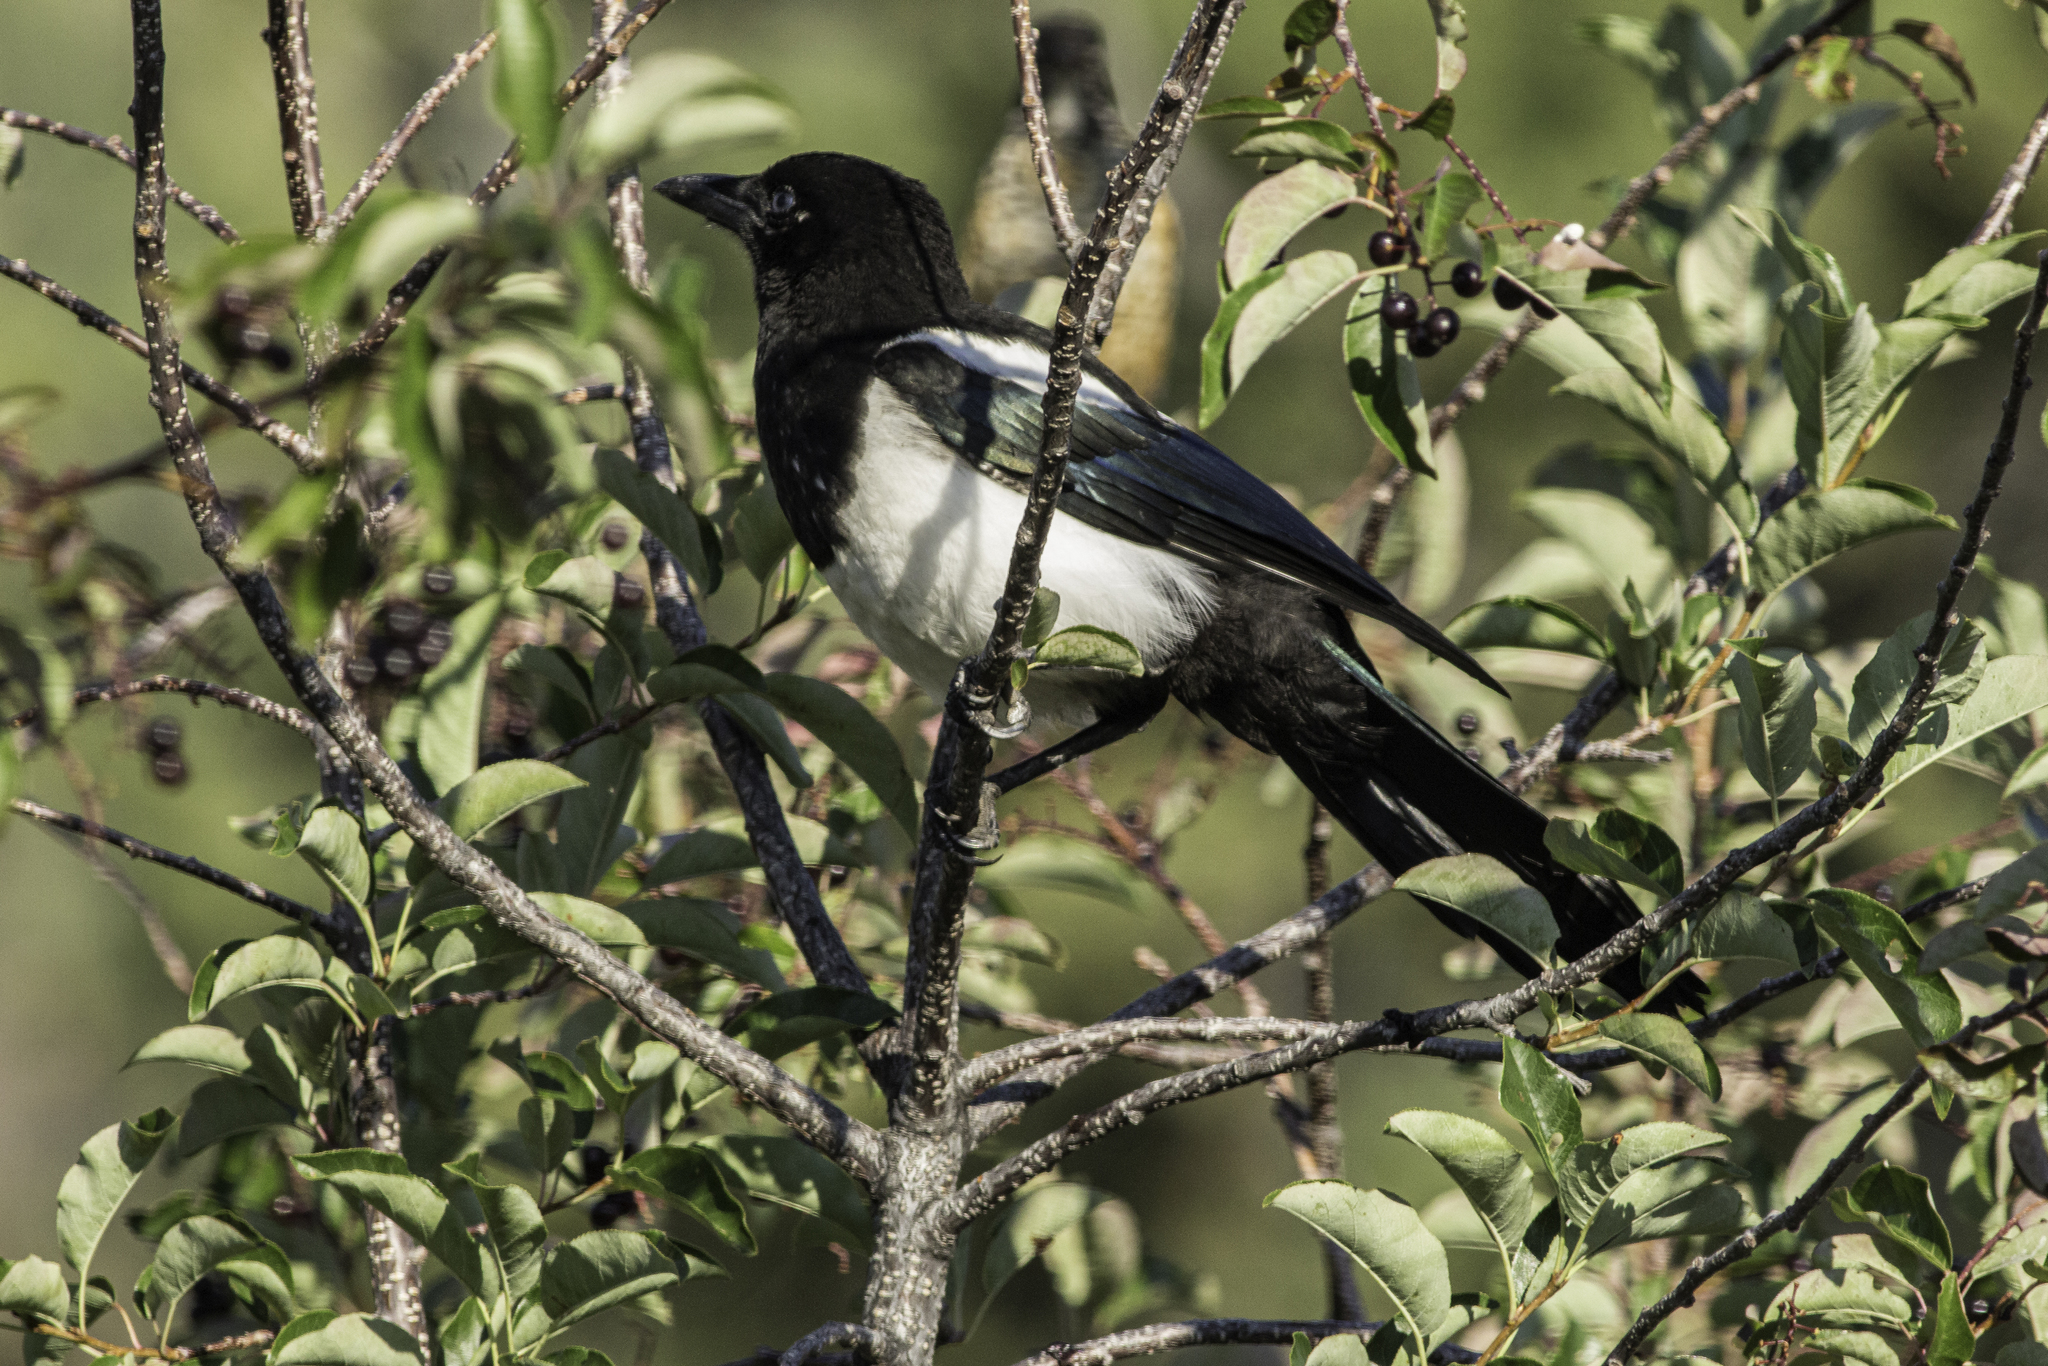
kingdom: Animalia
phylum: Chordata
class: Aves
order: Passeriformes
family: Corvidae
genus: Pica
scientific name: Pica hudsonia
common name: Black-billed magpie
